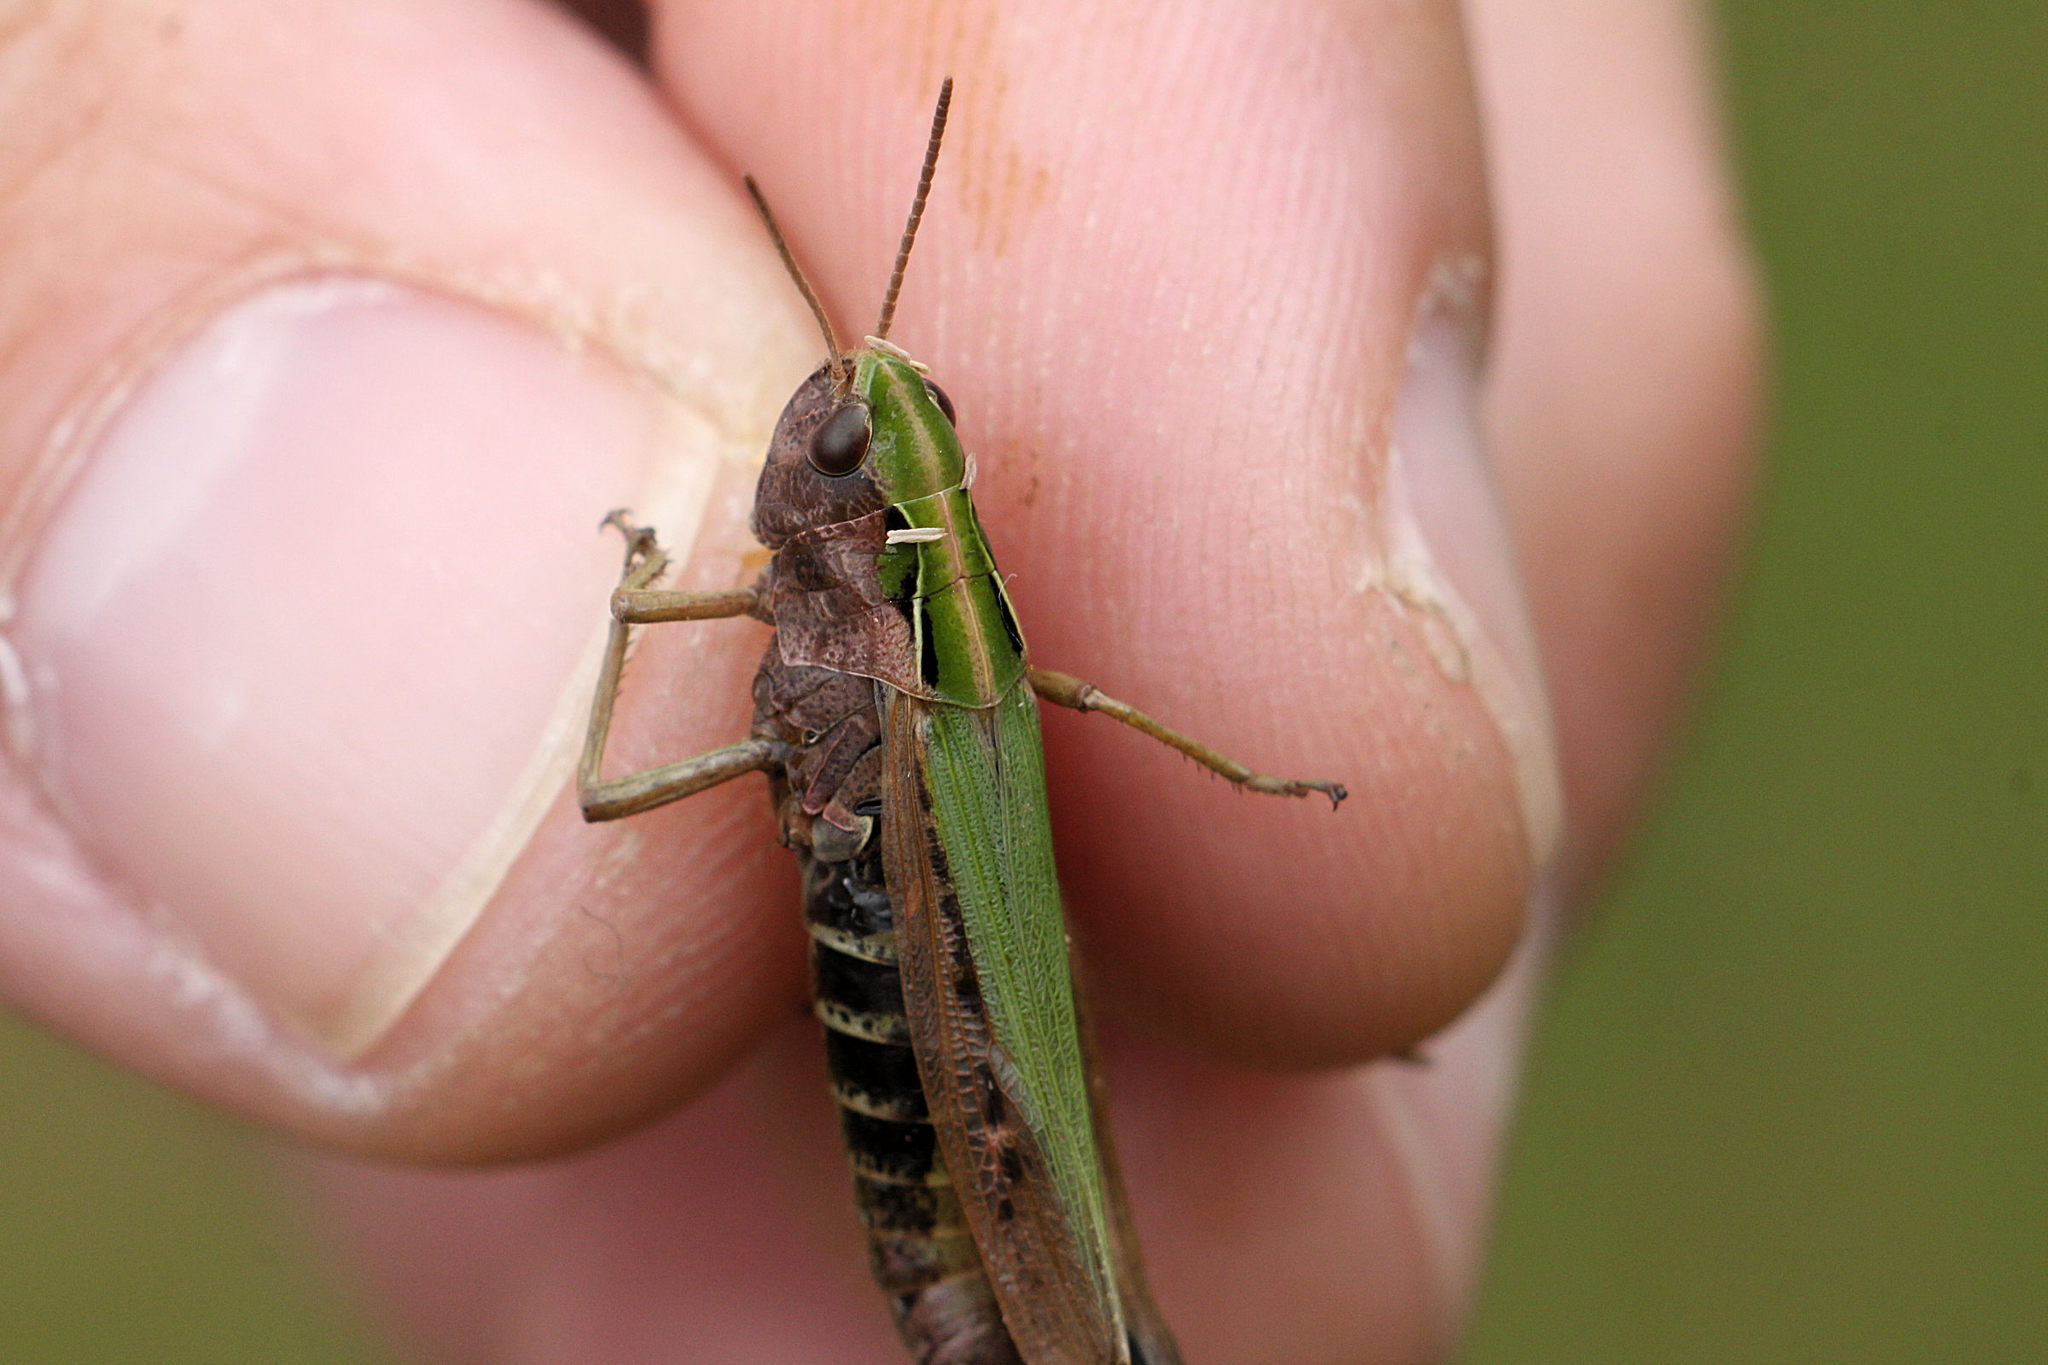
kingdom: Animalia
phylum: Arthropoda
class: Insecta
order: Orthoptera
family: Acrididae
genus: Omocestus
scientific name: Omocestus viridulus
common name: Common green grasshopper
